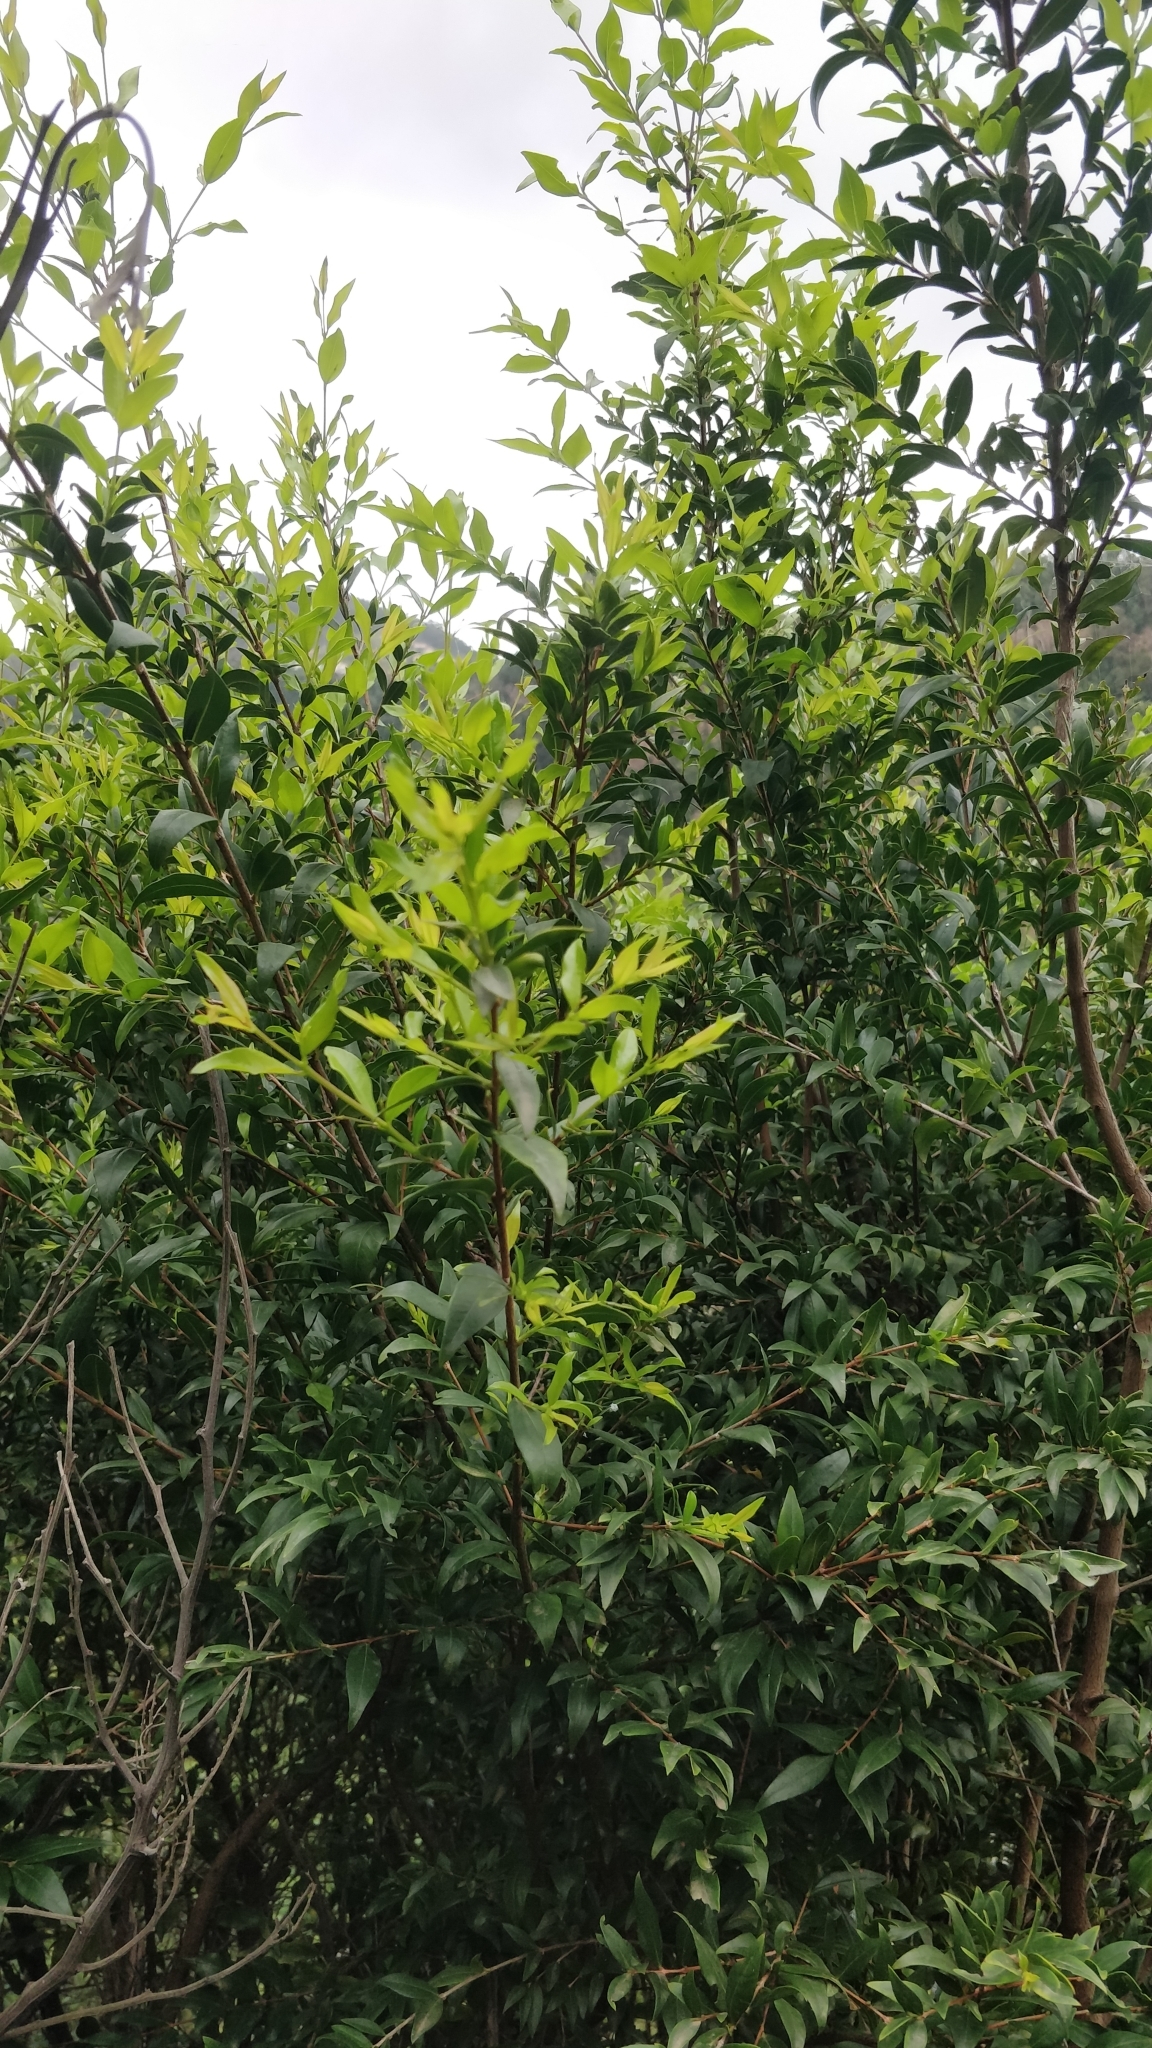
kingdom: Plantae
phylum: Tracheophyta
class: Magnoliopsida
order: Myrtales
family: Myrtaceae
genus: Myrtus
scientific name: Myrtus communis
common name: Myrtle
